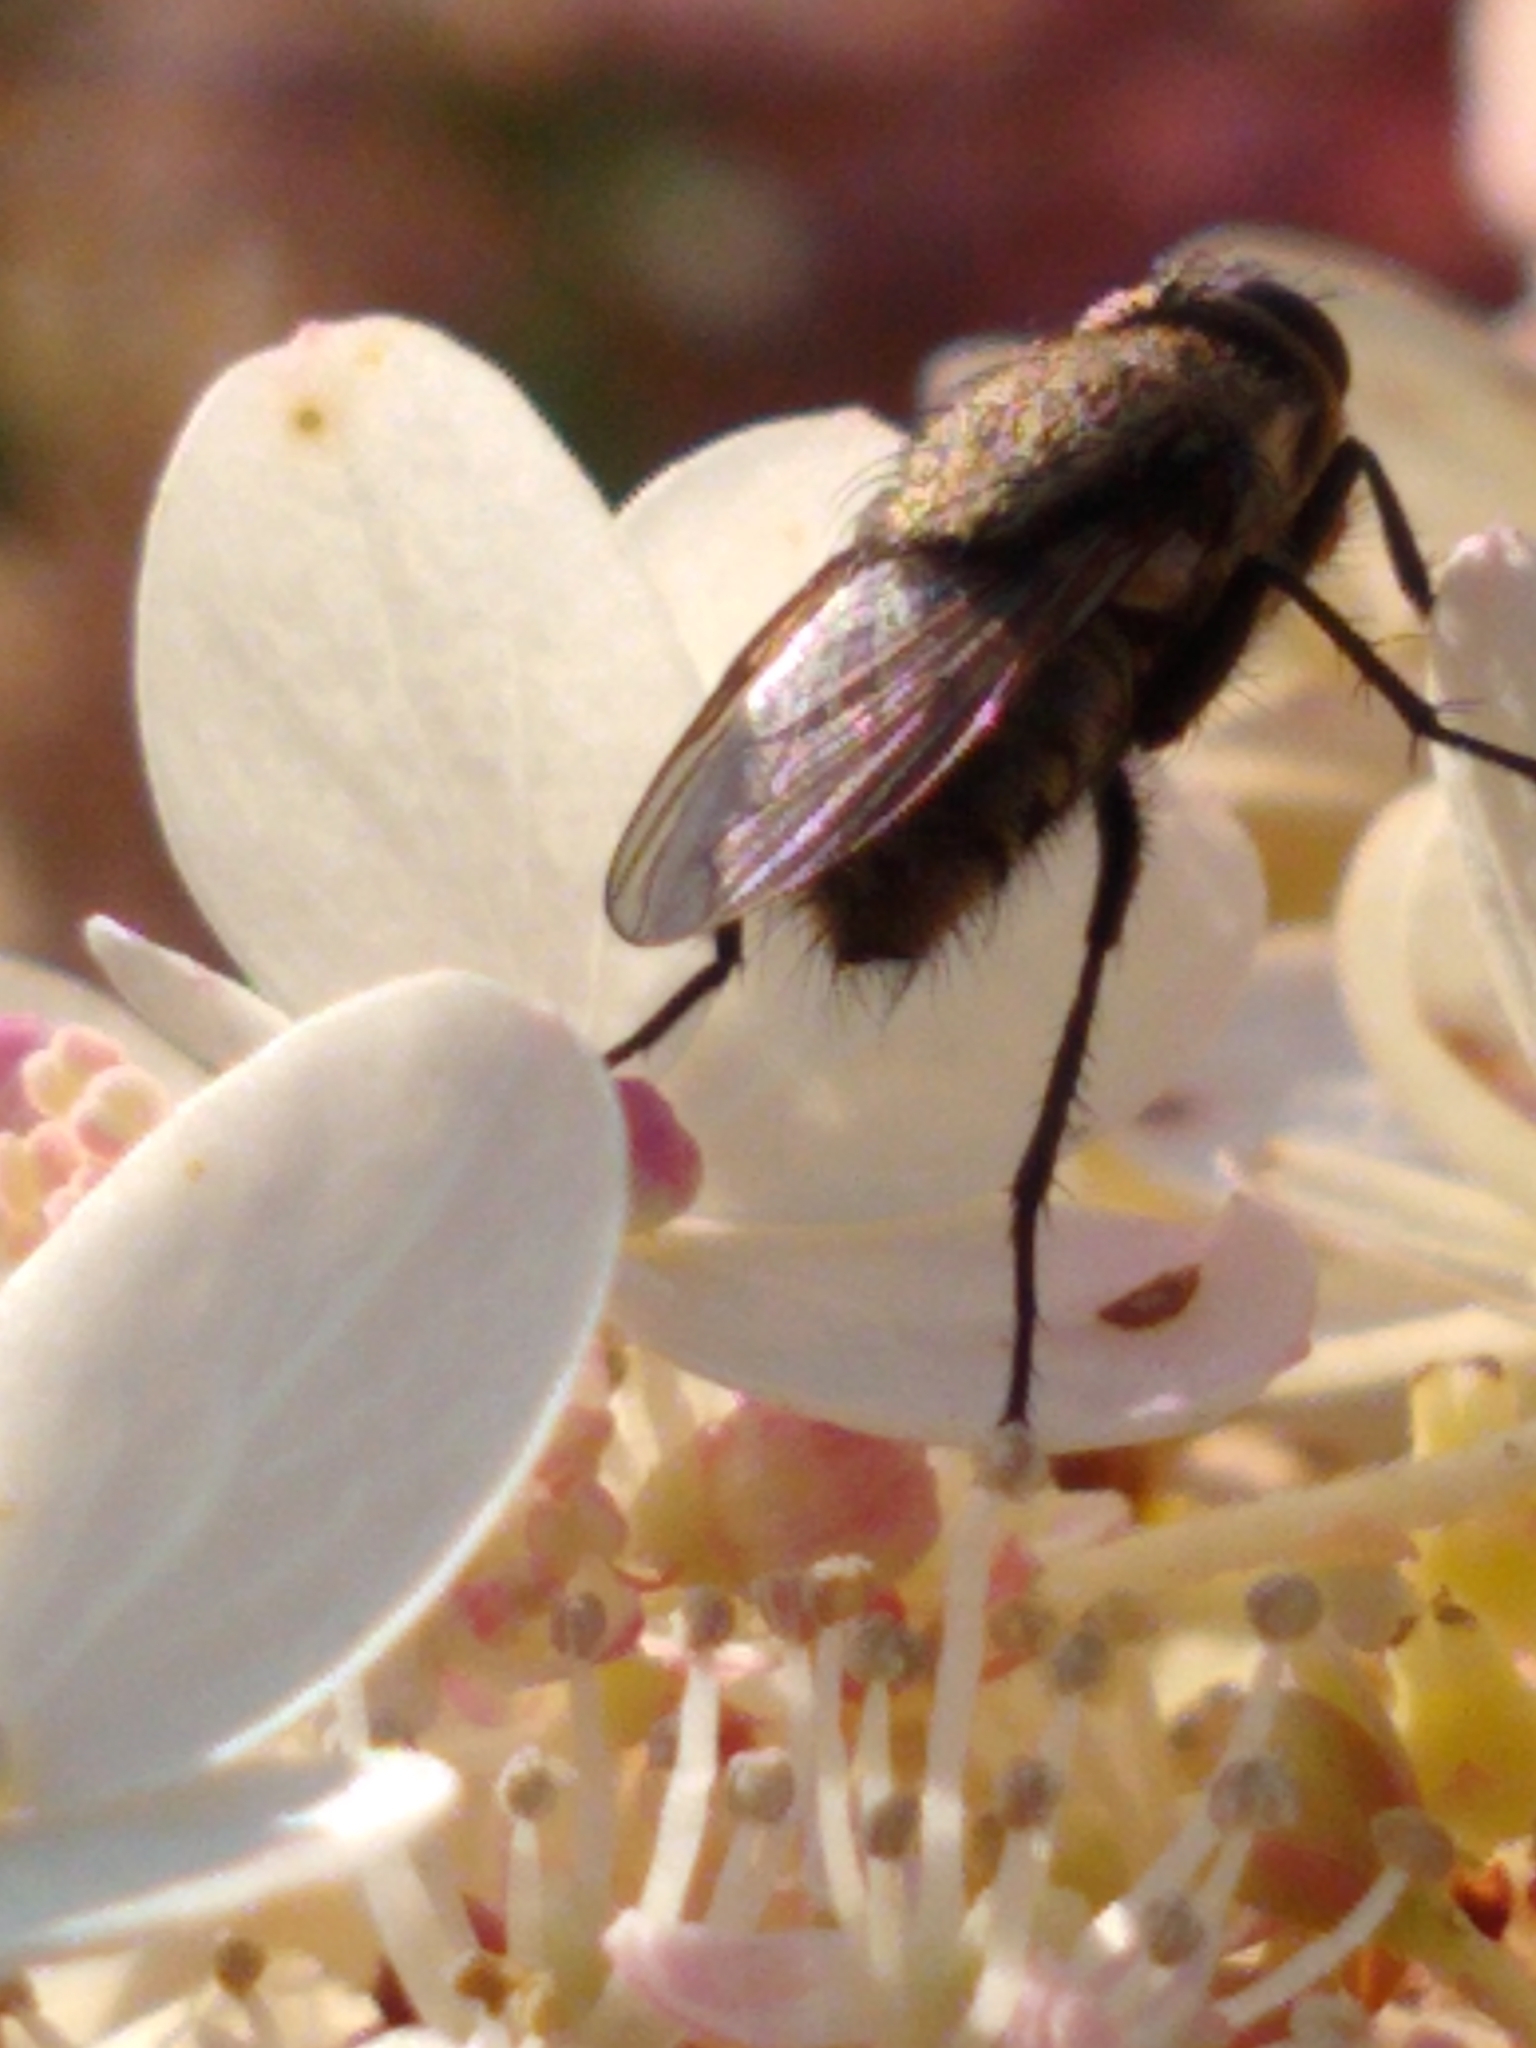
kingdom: Animalia
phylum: Arthropoda
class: Insecta
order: Diptera
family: Polleniidae
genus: Pollenia
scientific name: Pollenia
